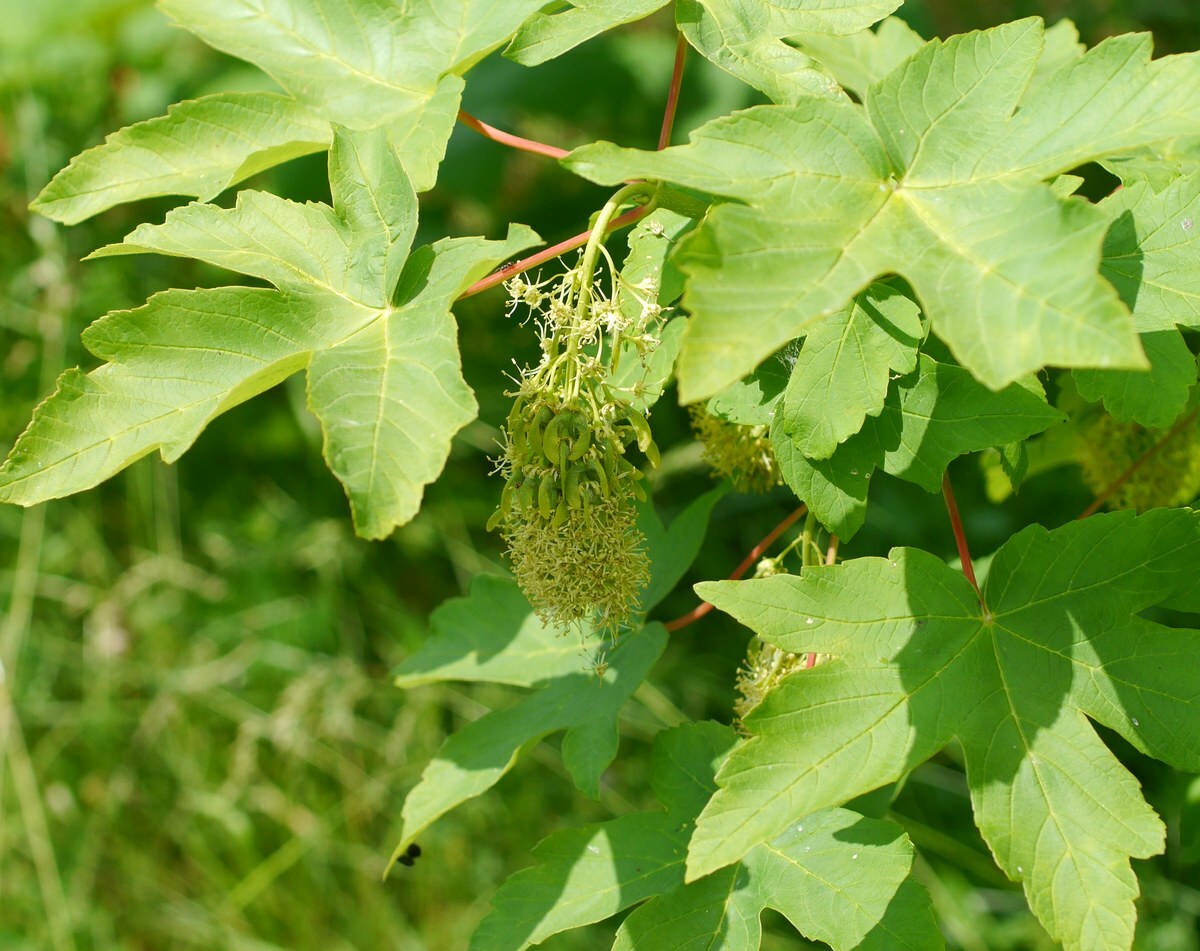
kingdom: Plantae
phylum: Tracheophyta
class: Magnoliopsida
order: Sapindales
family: Sapindaceae
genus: Acer
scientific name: Acer pseudoplatanus
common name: Sycamore
